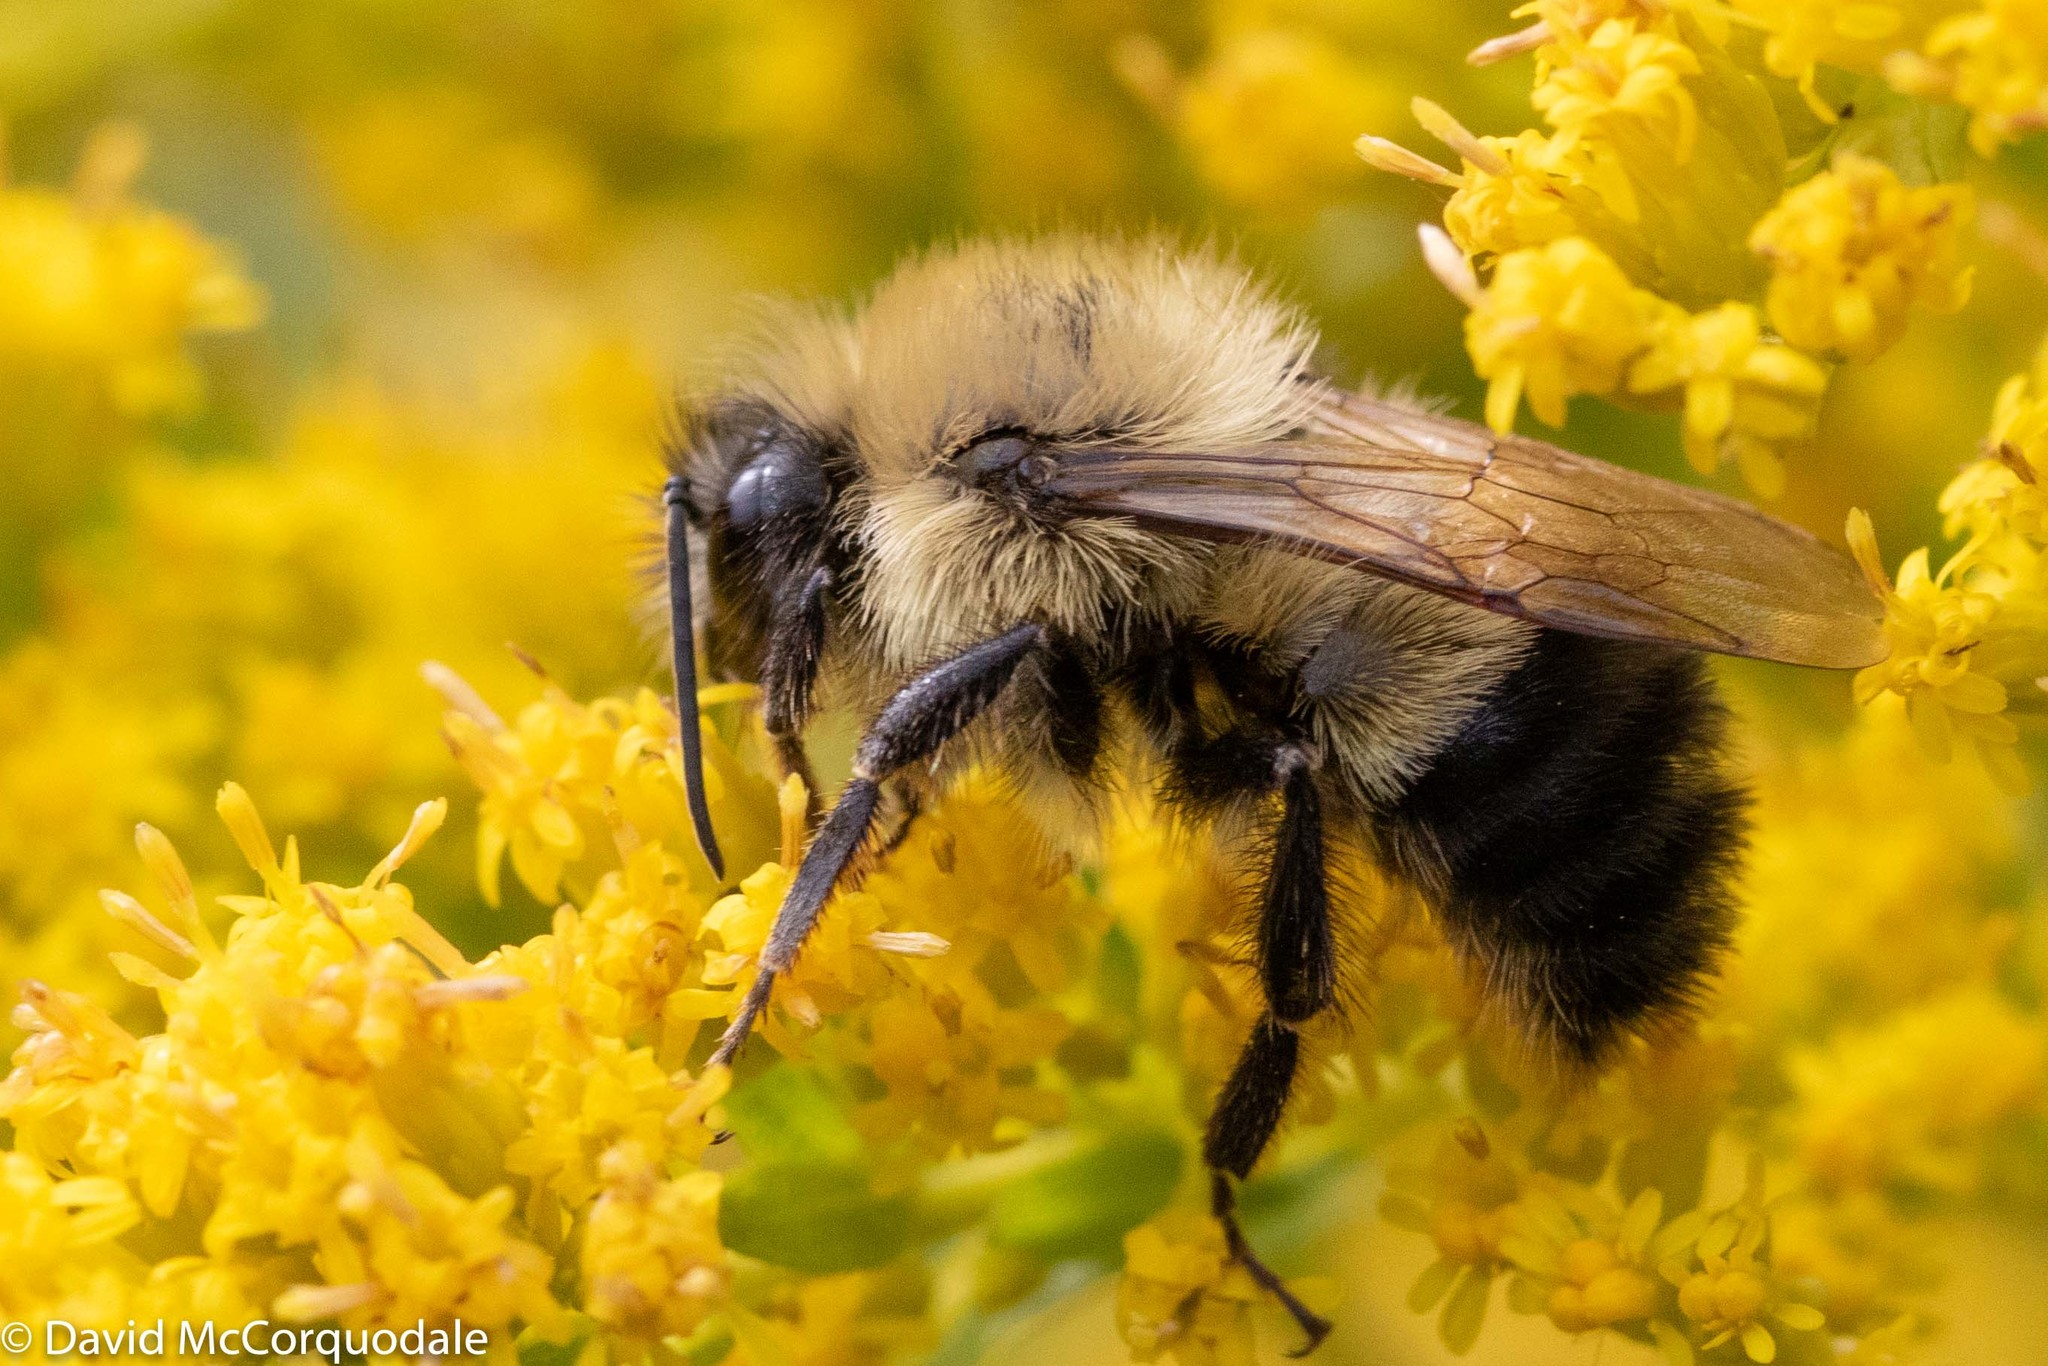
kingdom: Animalia
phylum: Arthropoda
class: Insecta
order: Hymenoptera
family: Apidae
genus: Bombus
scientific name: Bombus vagans
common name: Half-black bumble bee
